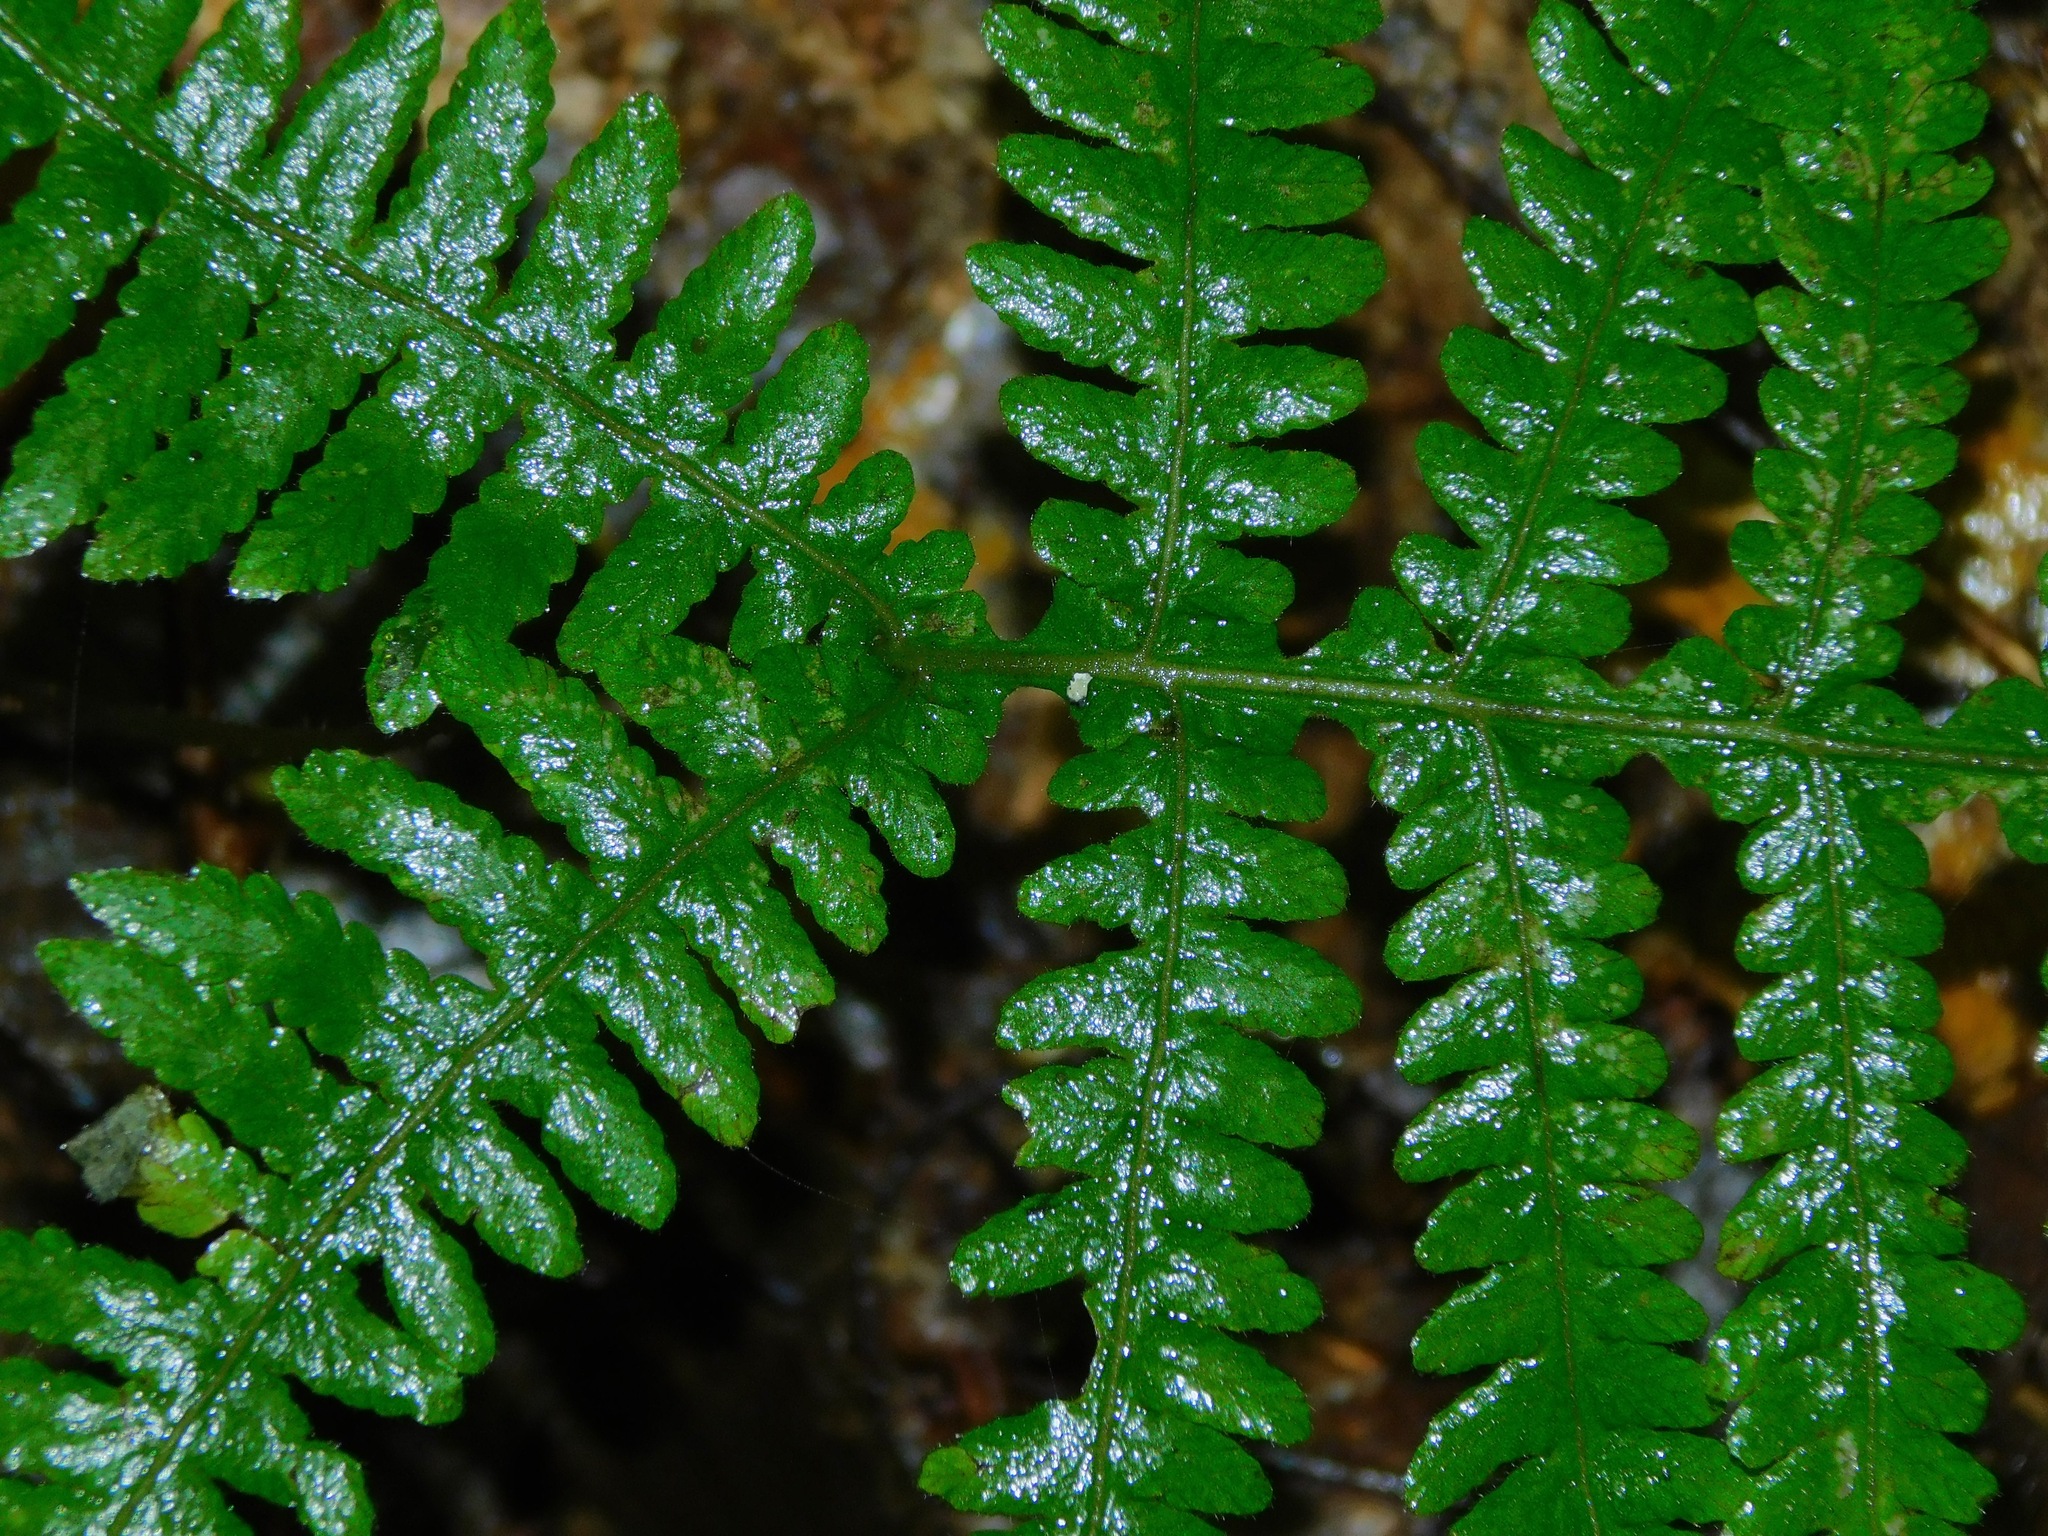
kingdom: Plantae
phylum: Tracheophyta
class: Polypodiopsida
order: Polypodiales
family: Thelypteridaceae
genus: Phegopteris
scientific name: Phegopteris hexagonoptera
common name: Broad beech fern
